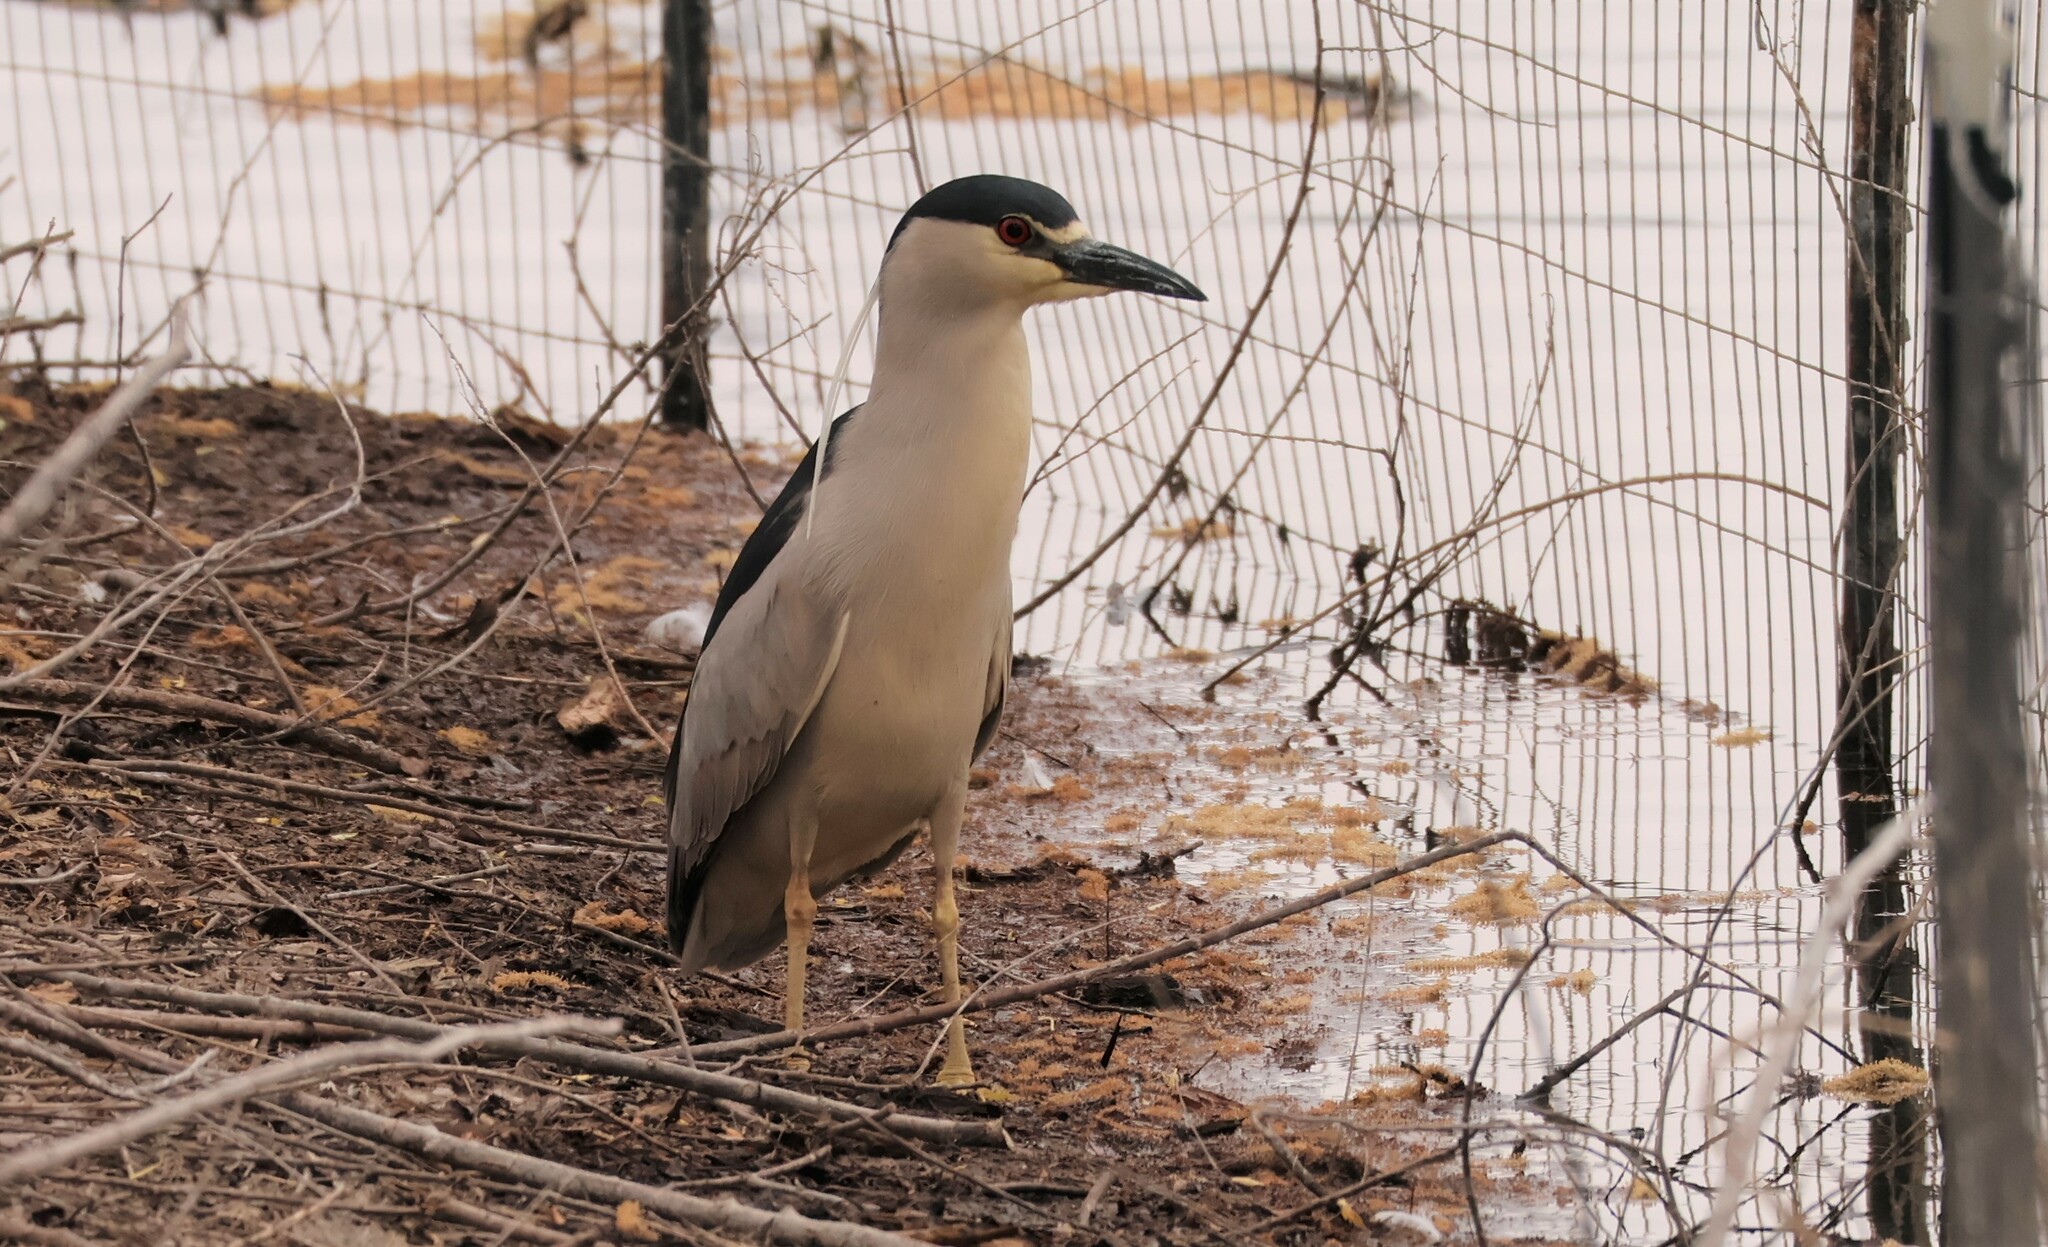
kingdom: Animalia
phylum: Chordata
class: Aves
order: Pelecaniformes
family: Ardeidae
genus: Nycticorax
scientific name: Nycticorax nycticorax
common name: Black-crowned night heron
